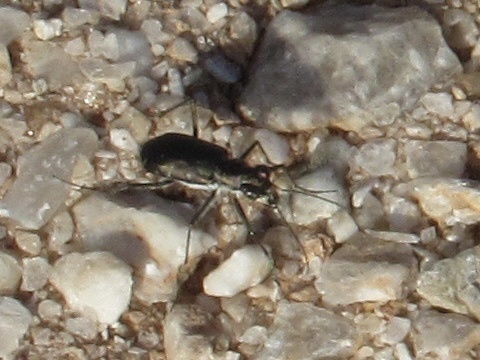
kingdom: Animalia
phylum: Arthropoda
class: Insecta
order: Coleoptera
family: Carabidae
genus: Cicindela
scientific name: Cicindela punctulata
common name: Punctured tiger beetle
